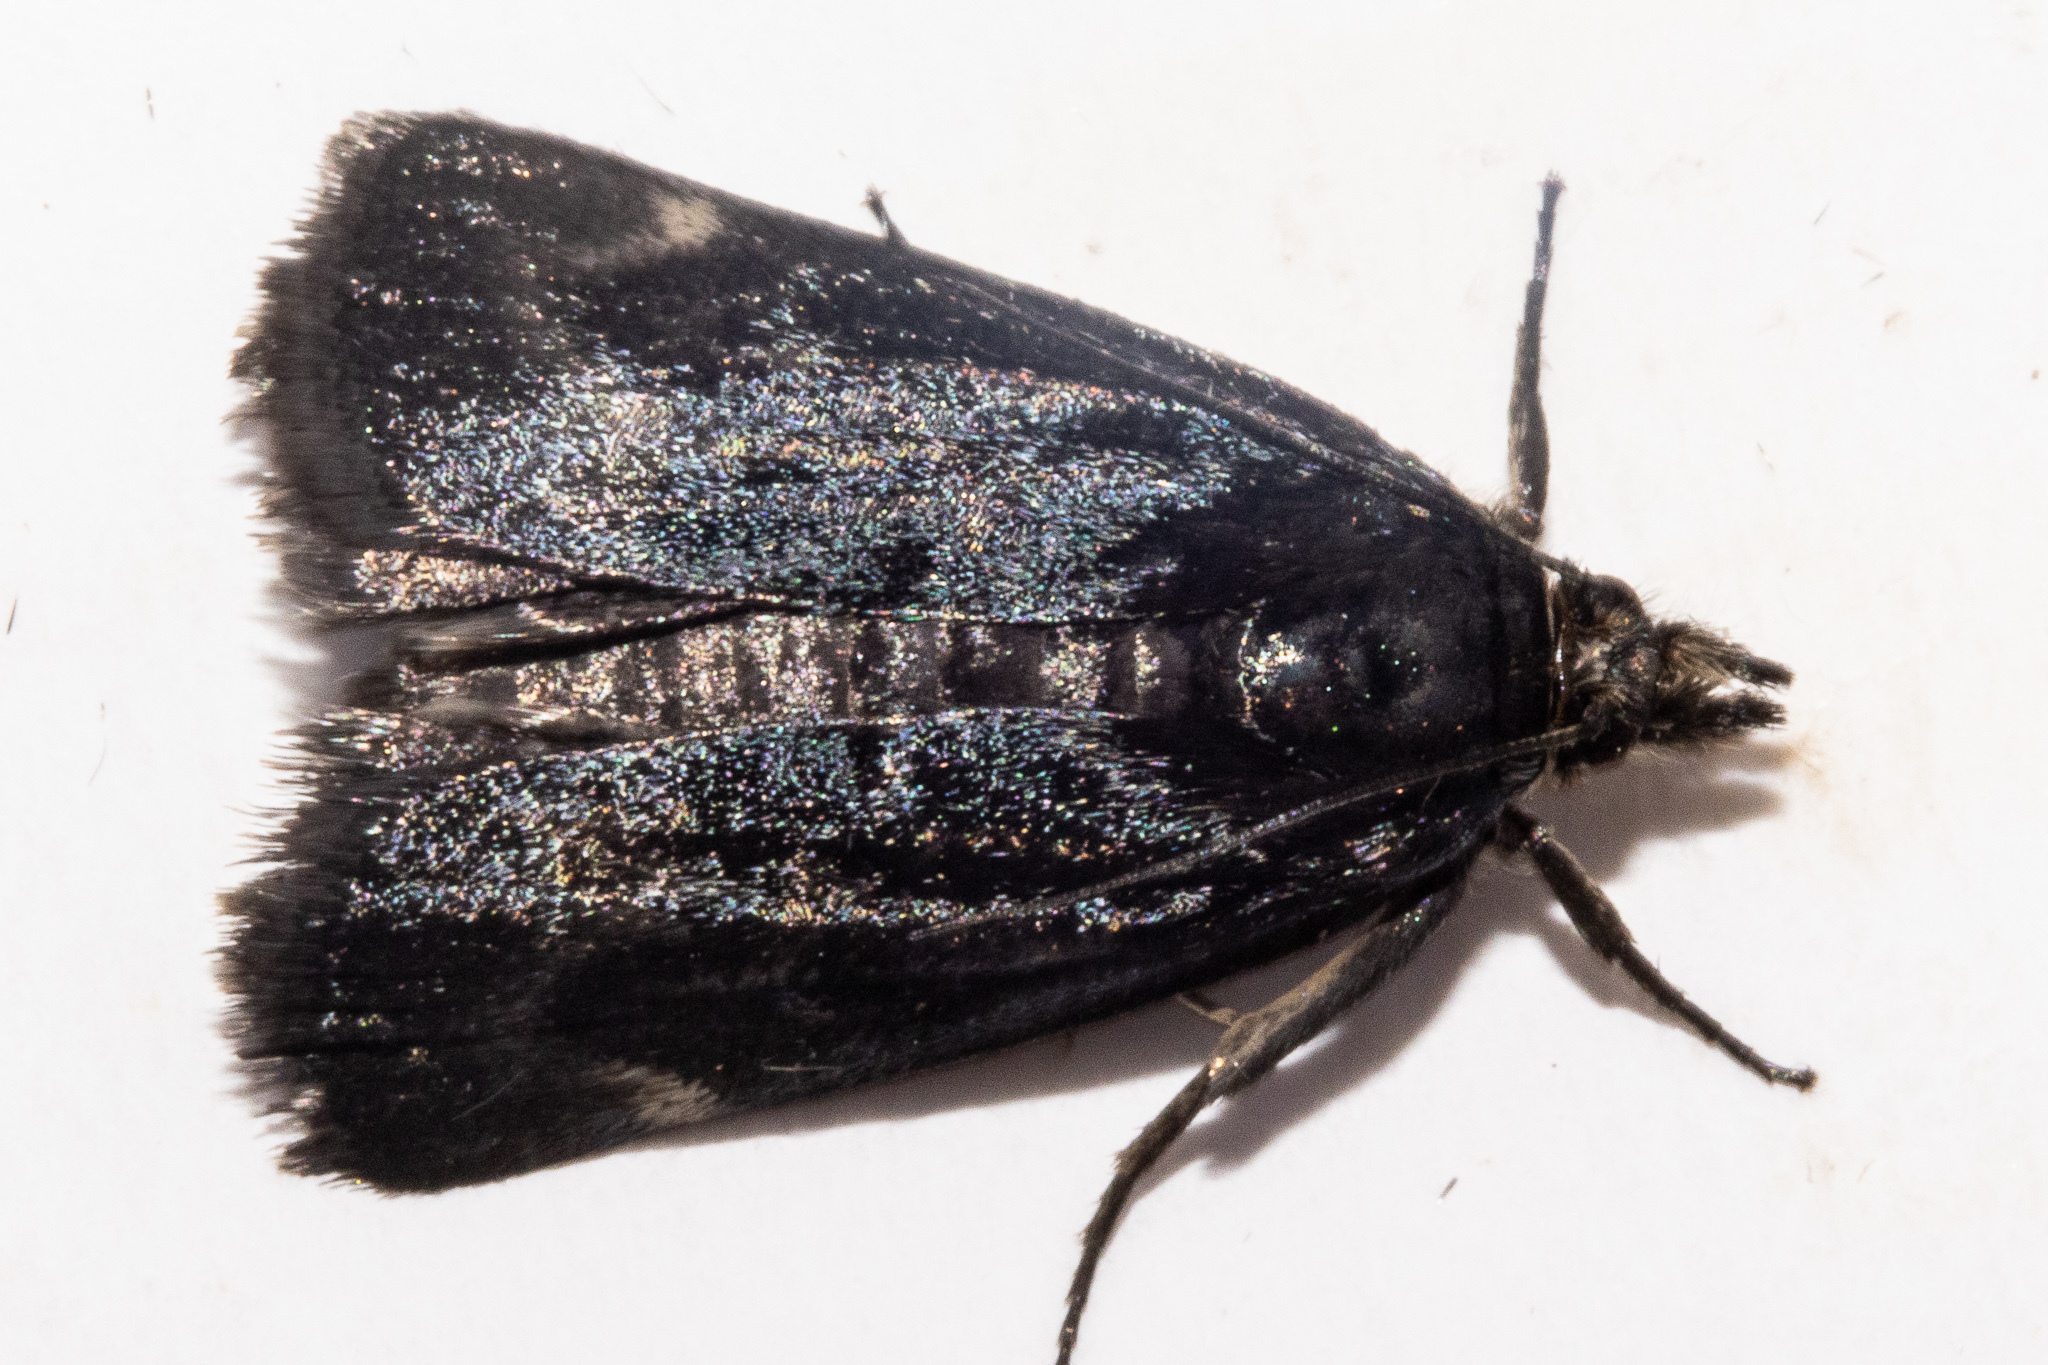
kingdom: Animalia
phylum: Arthropoda
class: Insecta
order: Lepidoptera
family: Crambidae
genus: Orocrambus
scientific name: Orocrambus clarkei
